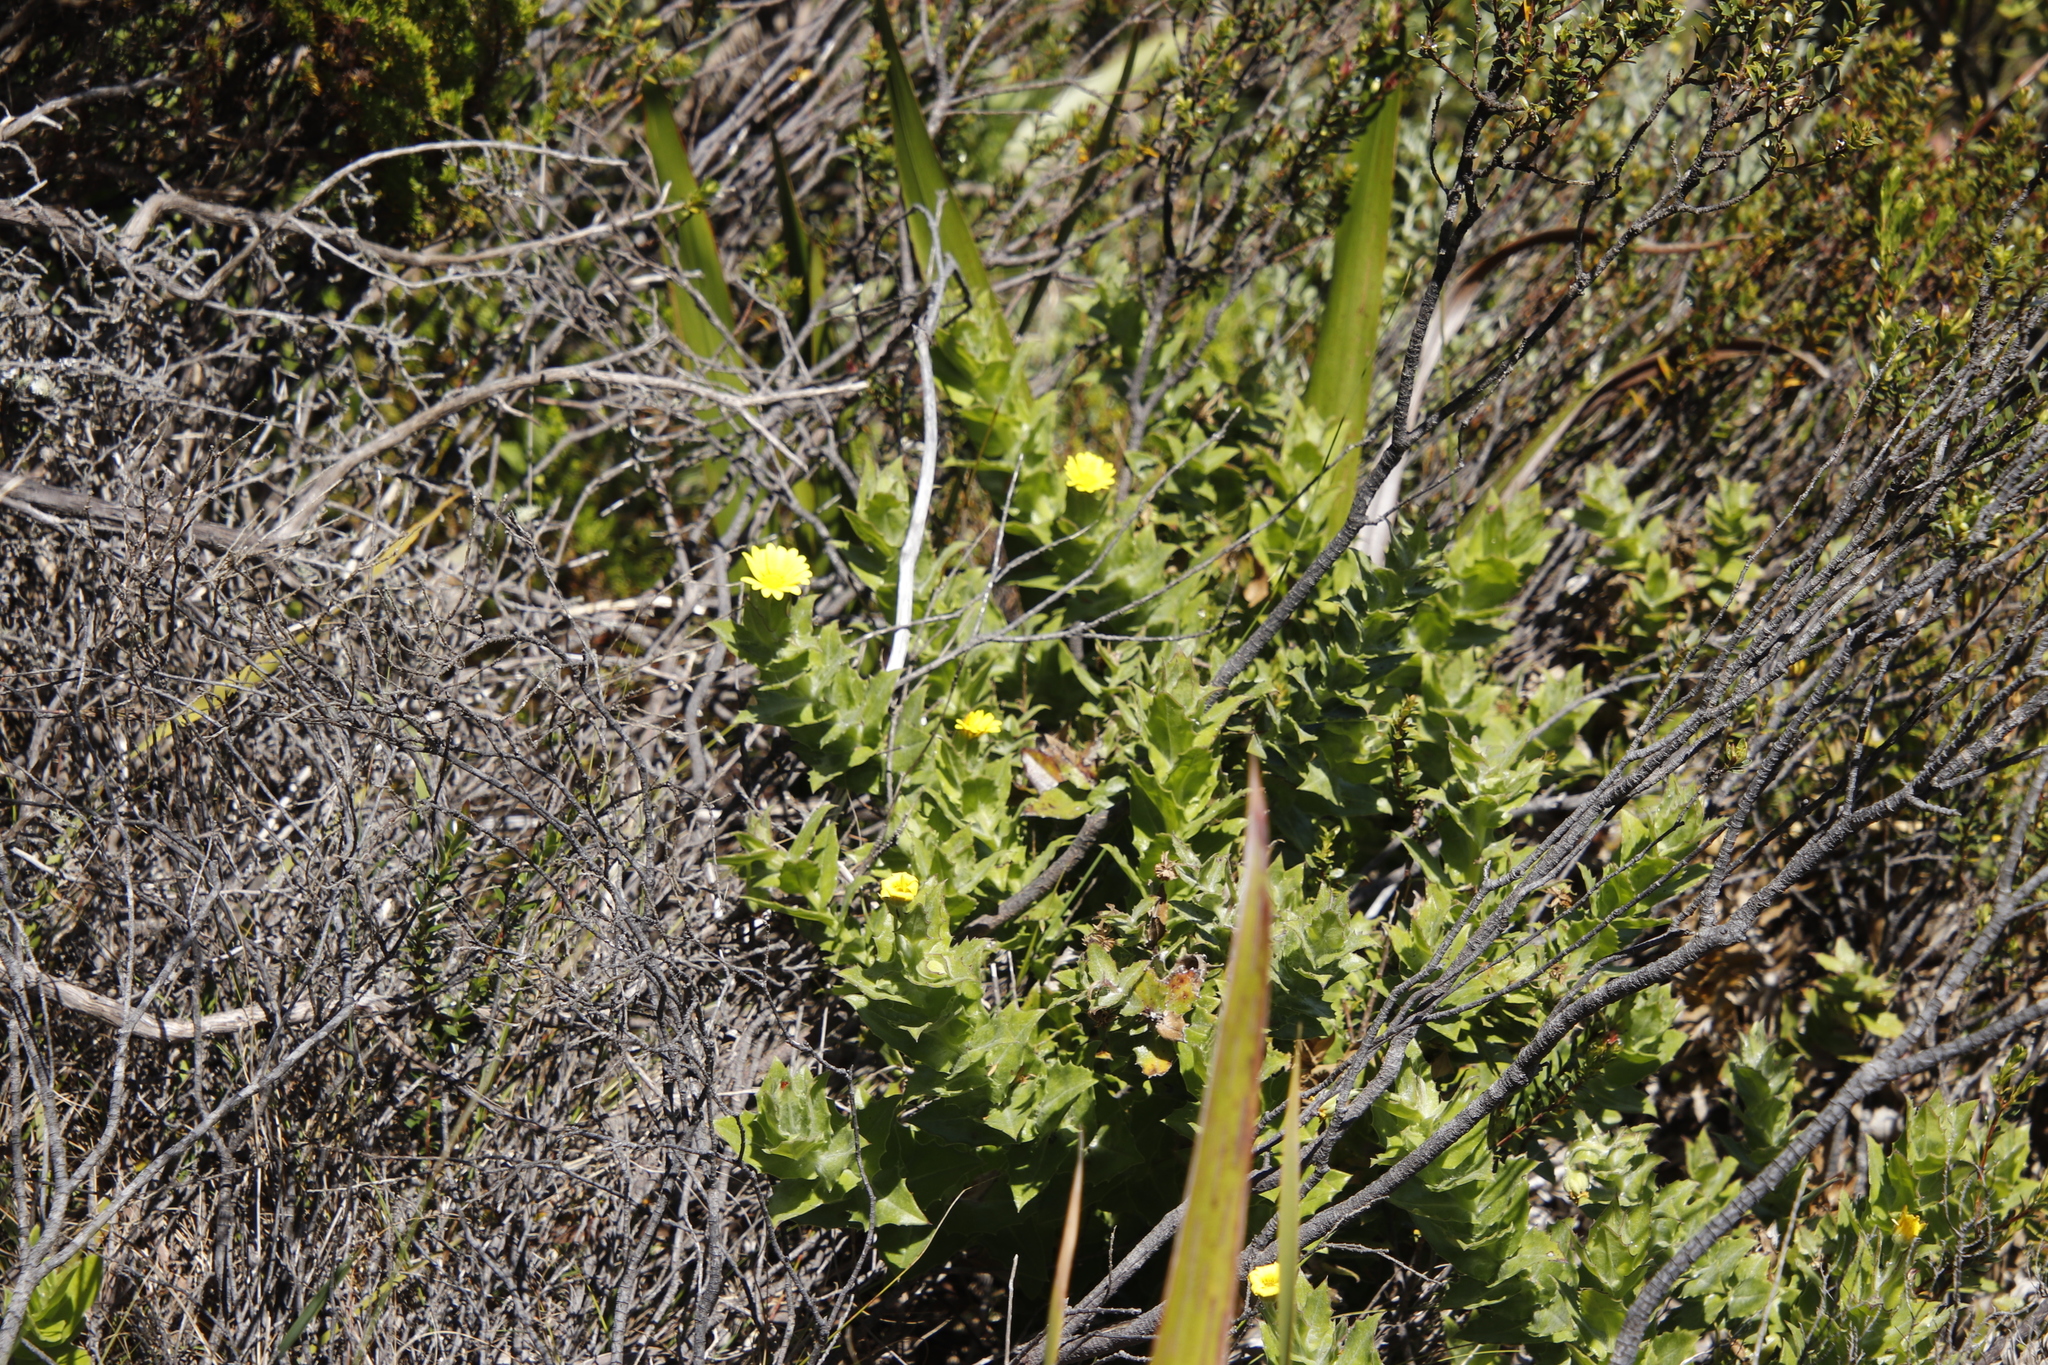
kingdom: Plantae
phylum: Tracheophyta
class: Magnoliopsida
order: Asterales
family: Asteraceae
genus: Osteospermum
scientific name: Osteospermum ilicifolium
